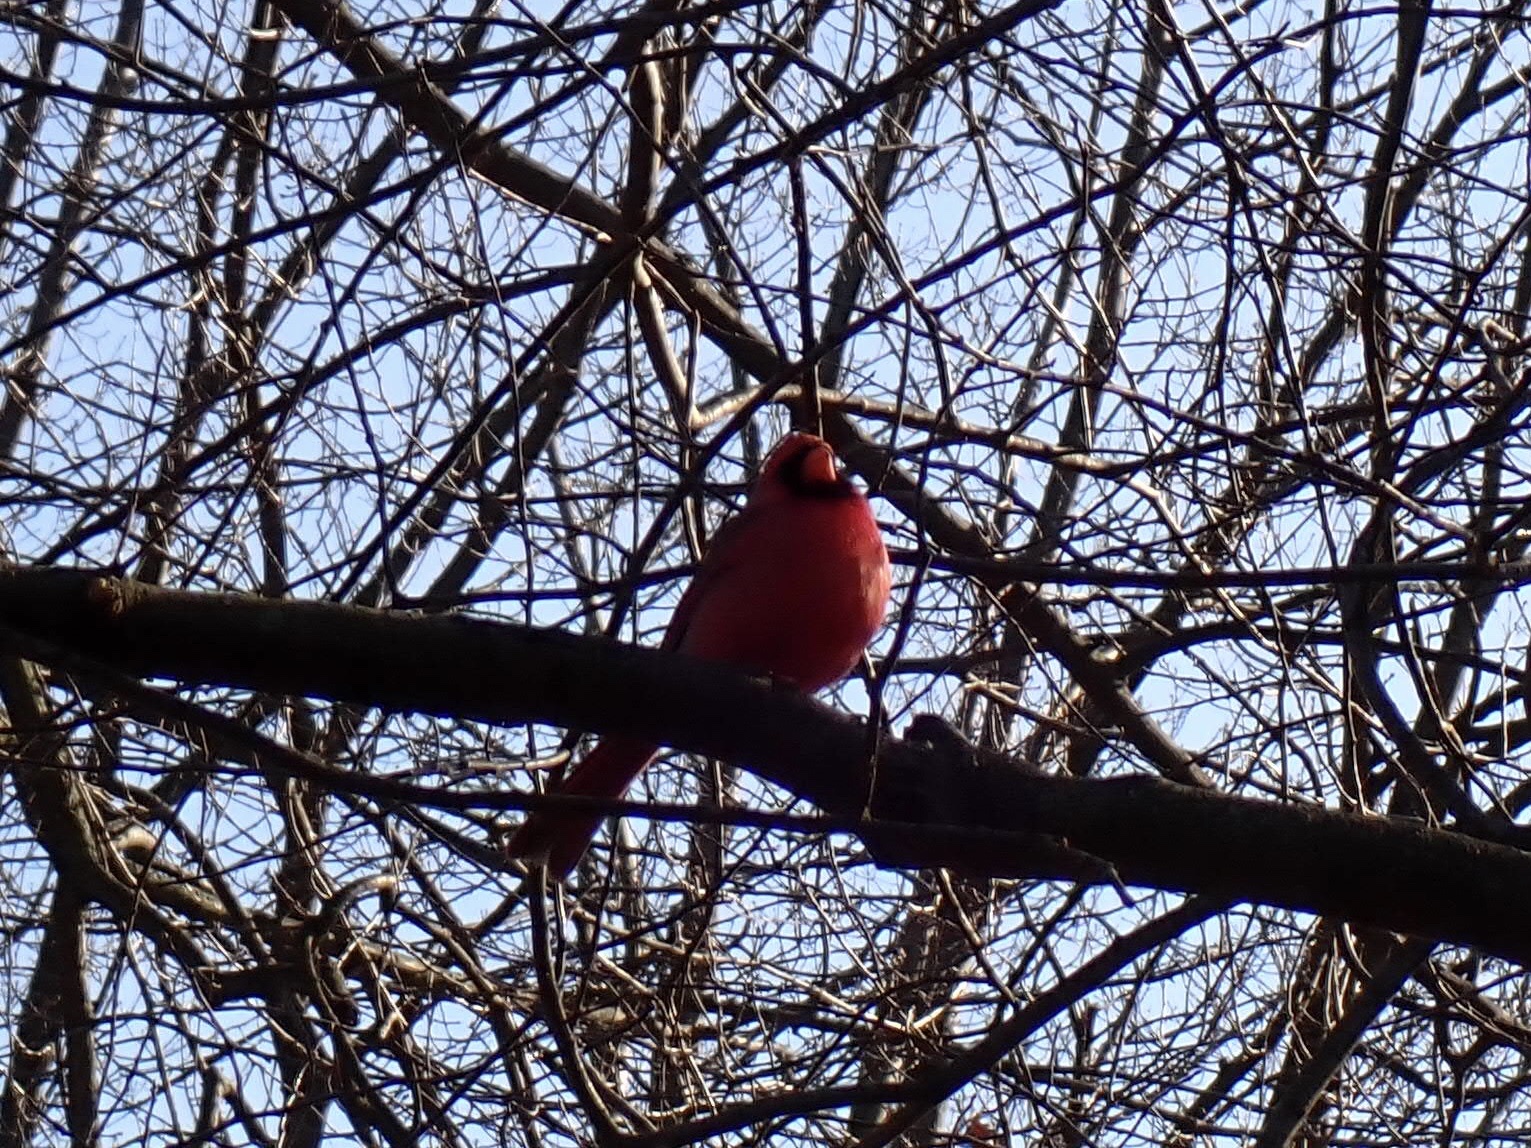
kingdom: Animalia
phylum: Chordata
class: Aves
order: Passeriformes
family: Cardinalidae
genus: Cardinalis
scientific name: Cardinalis cardinalis
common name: Northern cardinal
